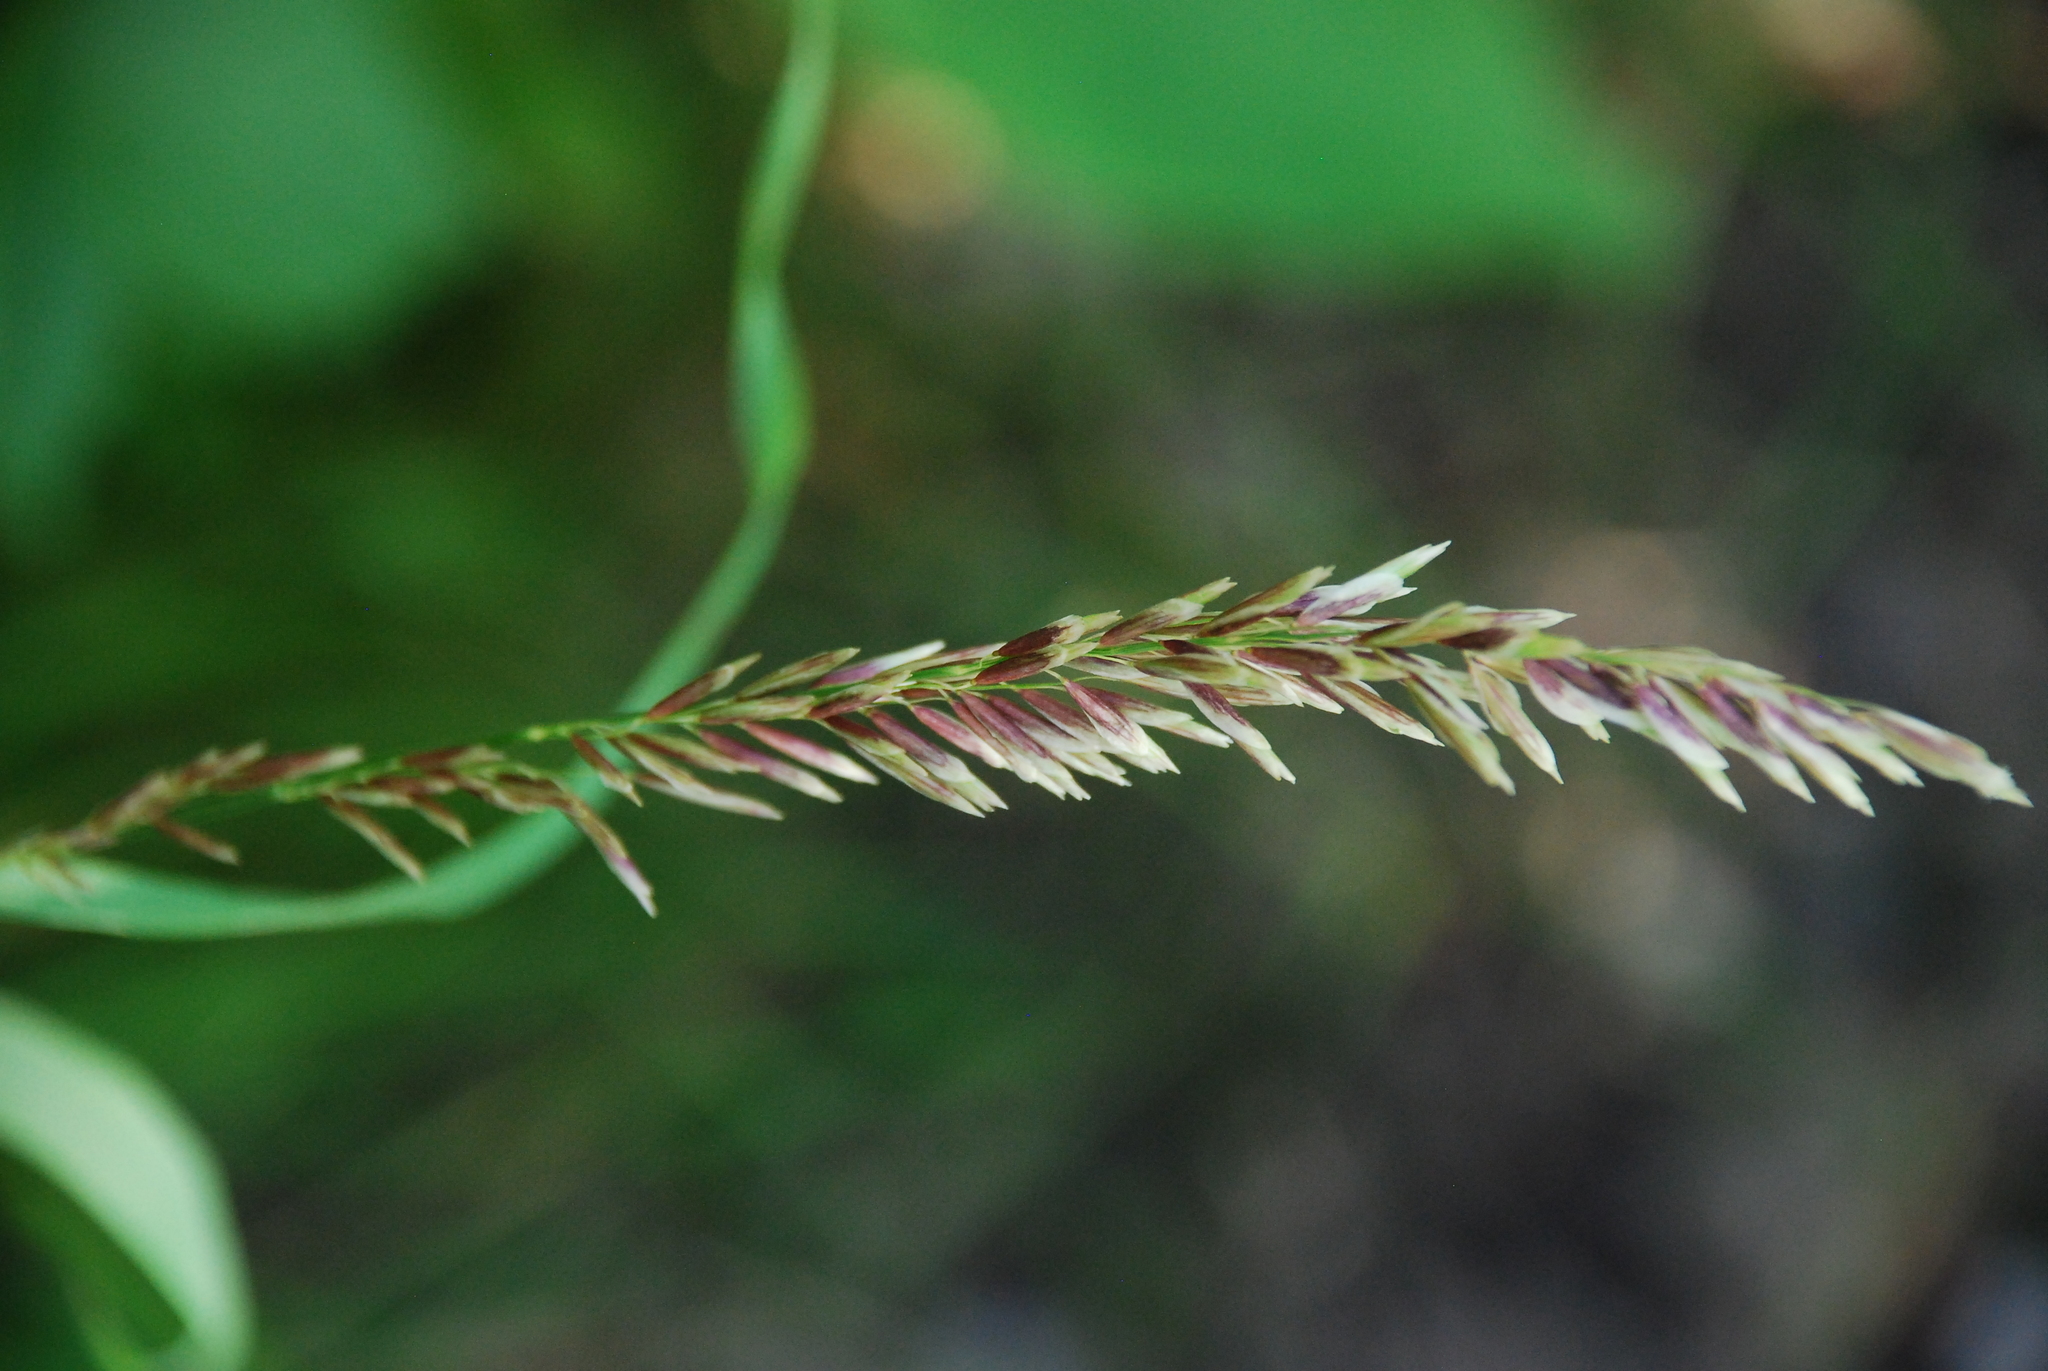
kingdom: Plantae
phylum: Tracheophyta
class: Liliopsida
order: Poales
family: Poaceae
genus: Melica
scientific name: Melica altissima
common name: Siberian melicgrass
